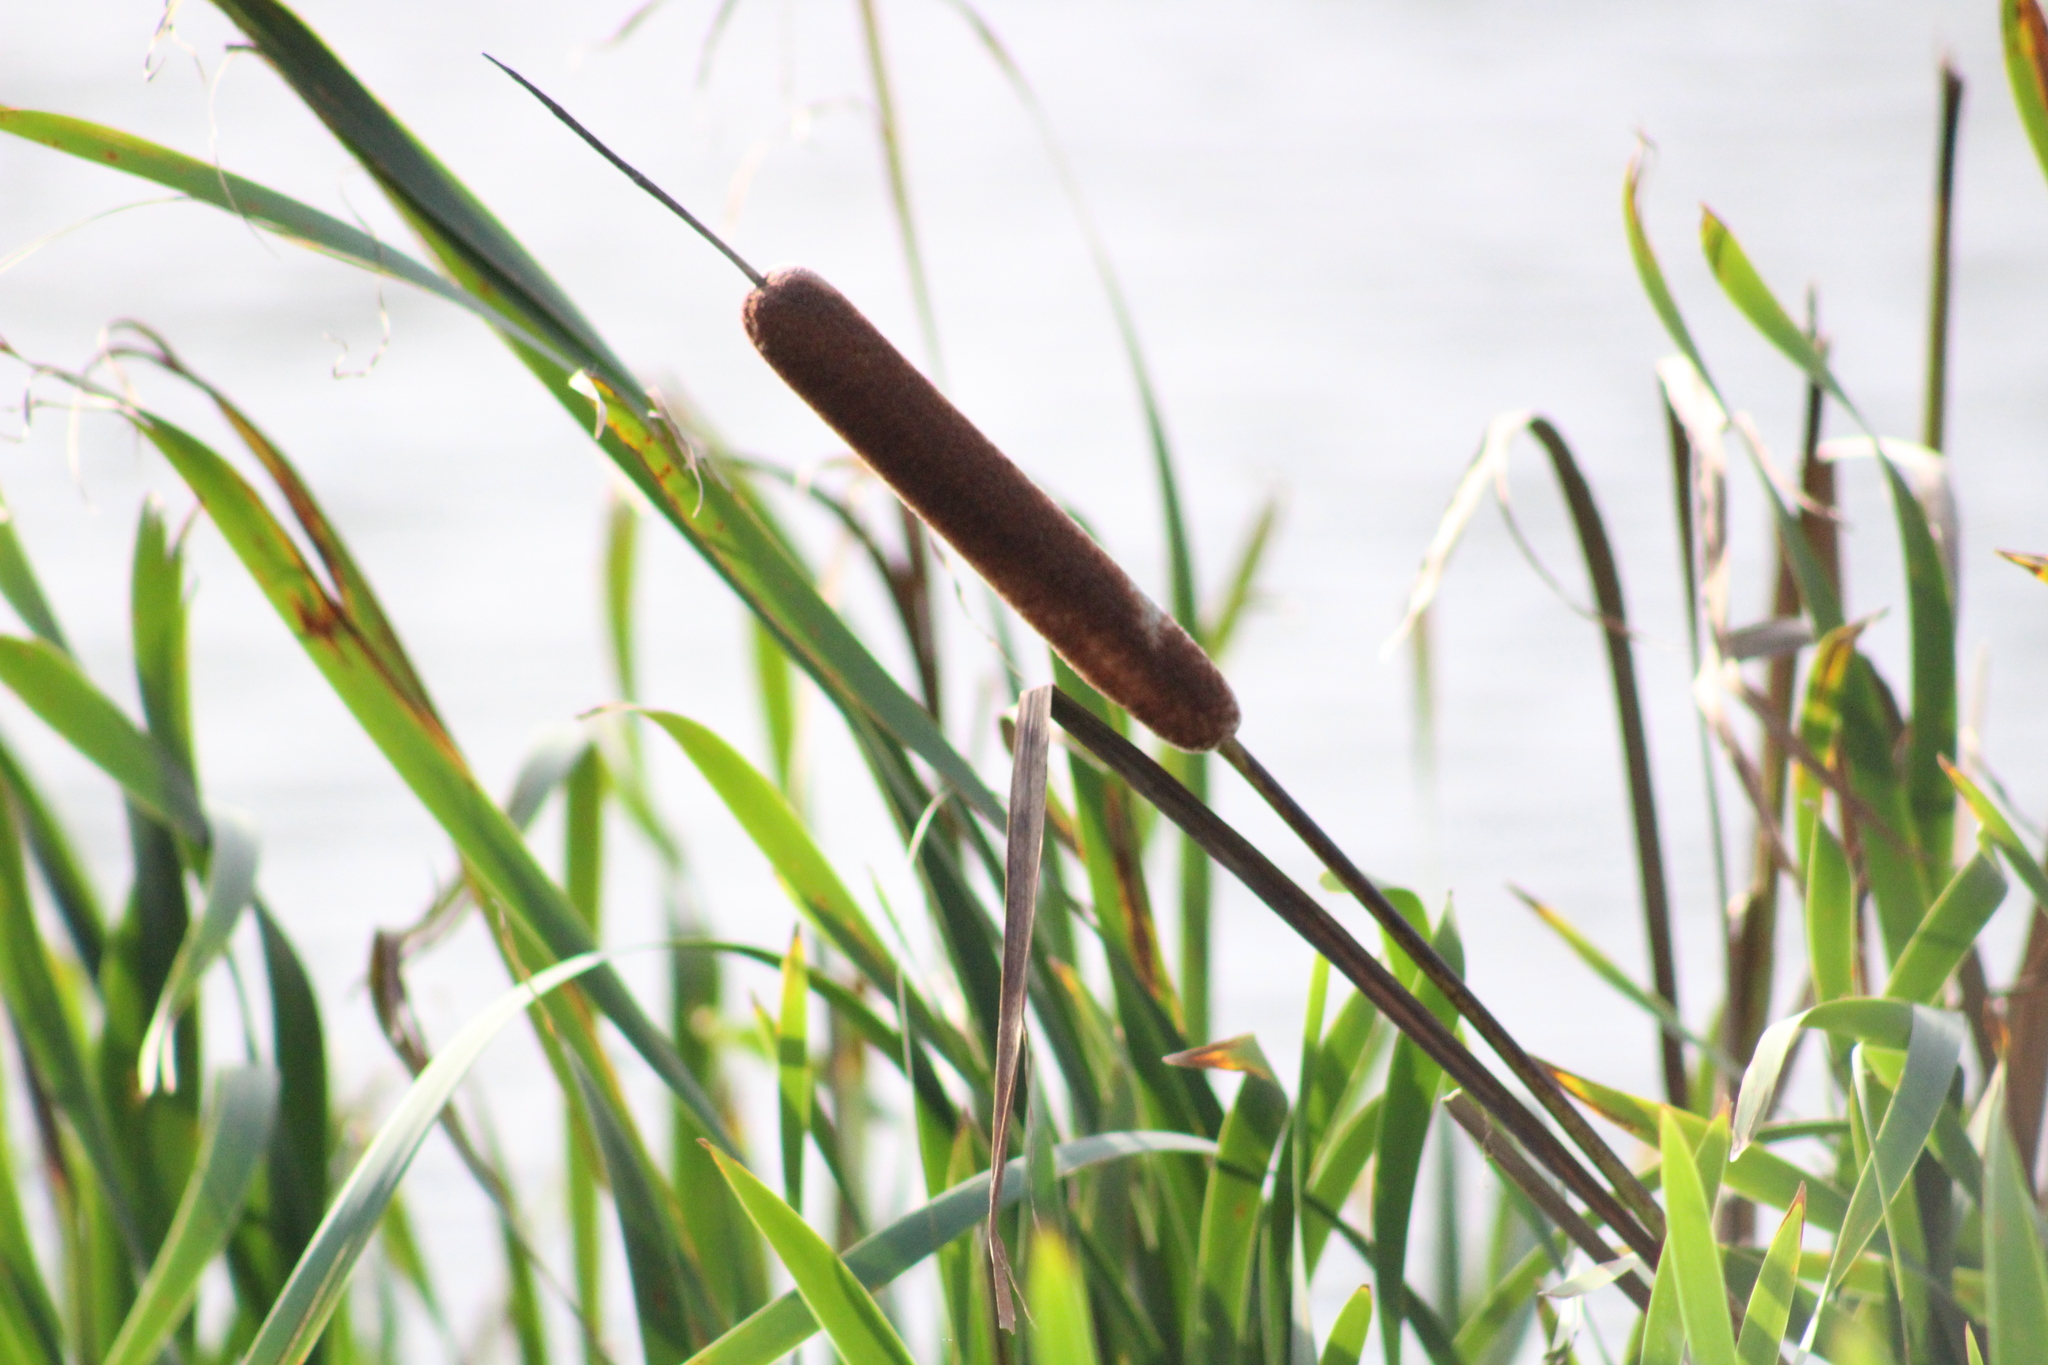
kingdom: Plantae
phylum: Tracheophyta
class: Liliopsida
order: Poales
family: Typhaceae
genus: Typha
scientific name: Typha latifolia
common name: Broadleaf cattail
